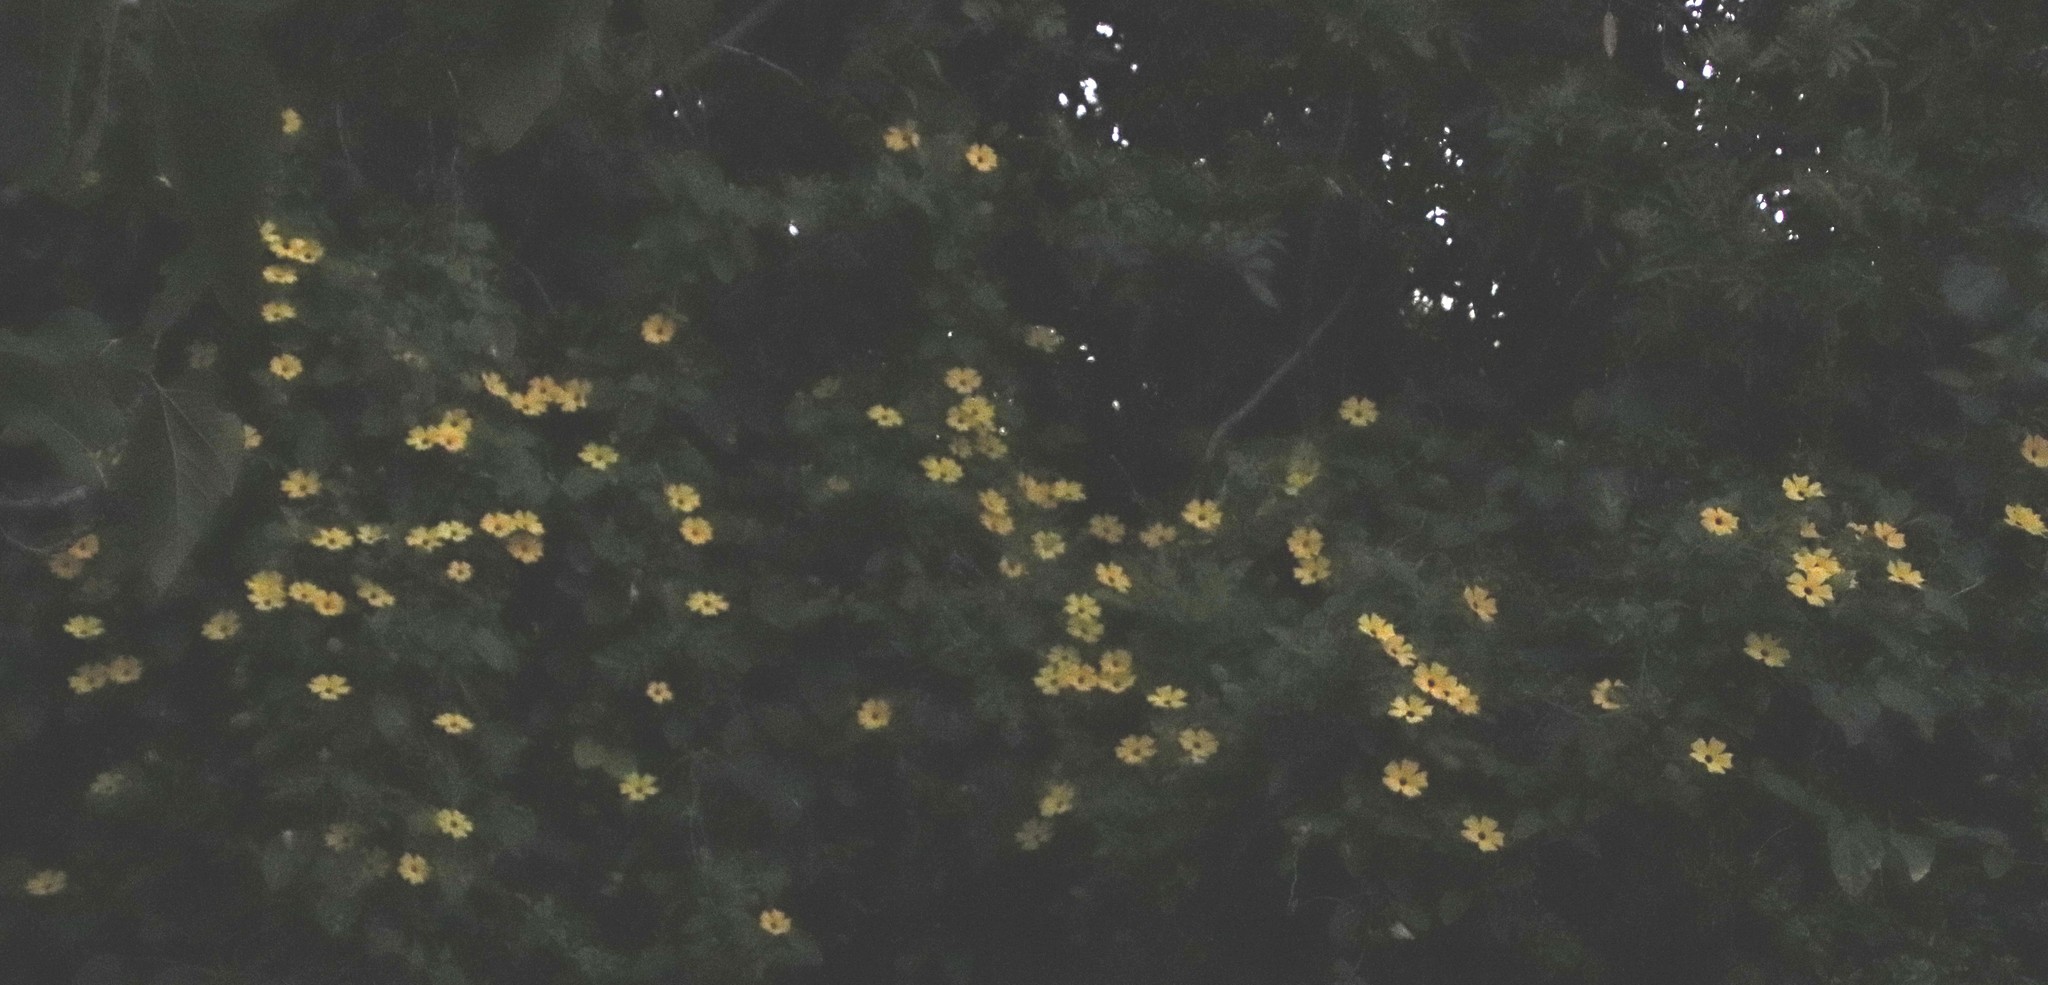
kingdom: Plantae
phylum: Tracheophyta
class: Magnoliopsida
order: Lamiales
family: Acanthaceae
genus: Thunbergia
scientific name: Thunbergia alata
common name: Blackeyed susan vine
